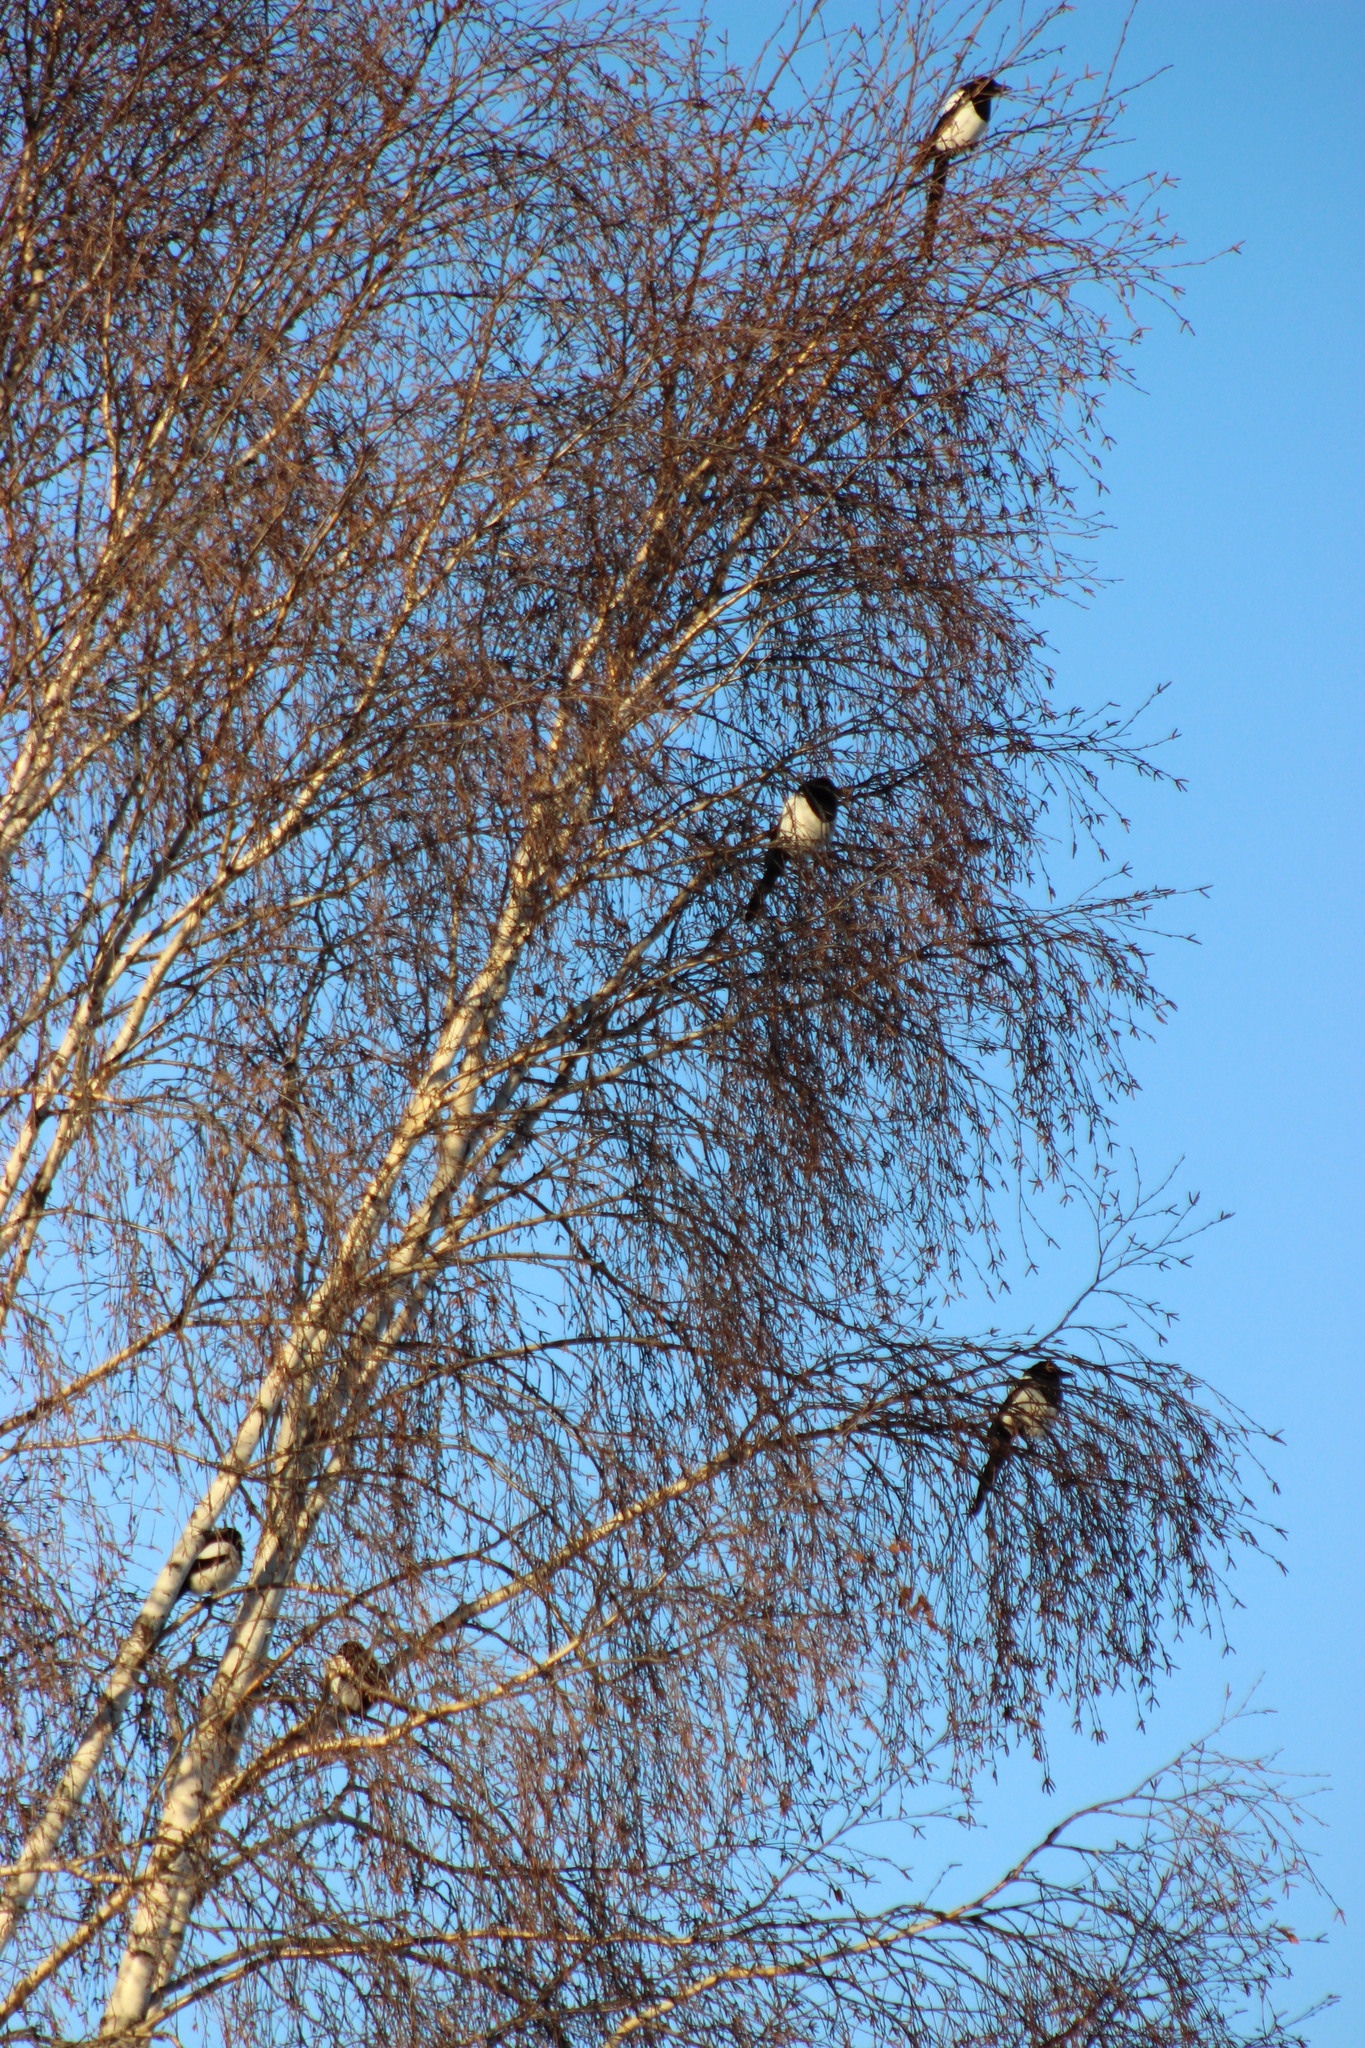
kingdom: Animalia
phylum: Chordata
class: Aves
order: Passeriformes
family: Corvidae
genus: Pica
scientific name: Pica pica
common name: Eurasian magpie
